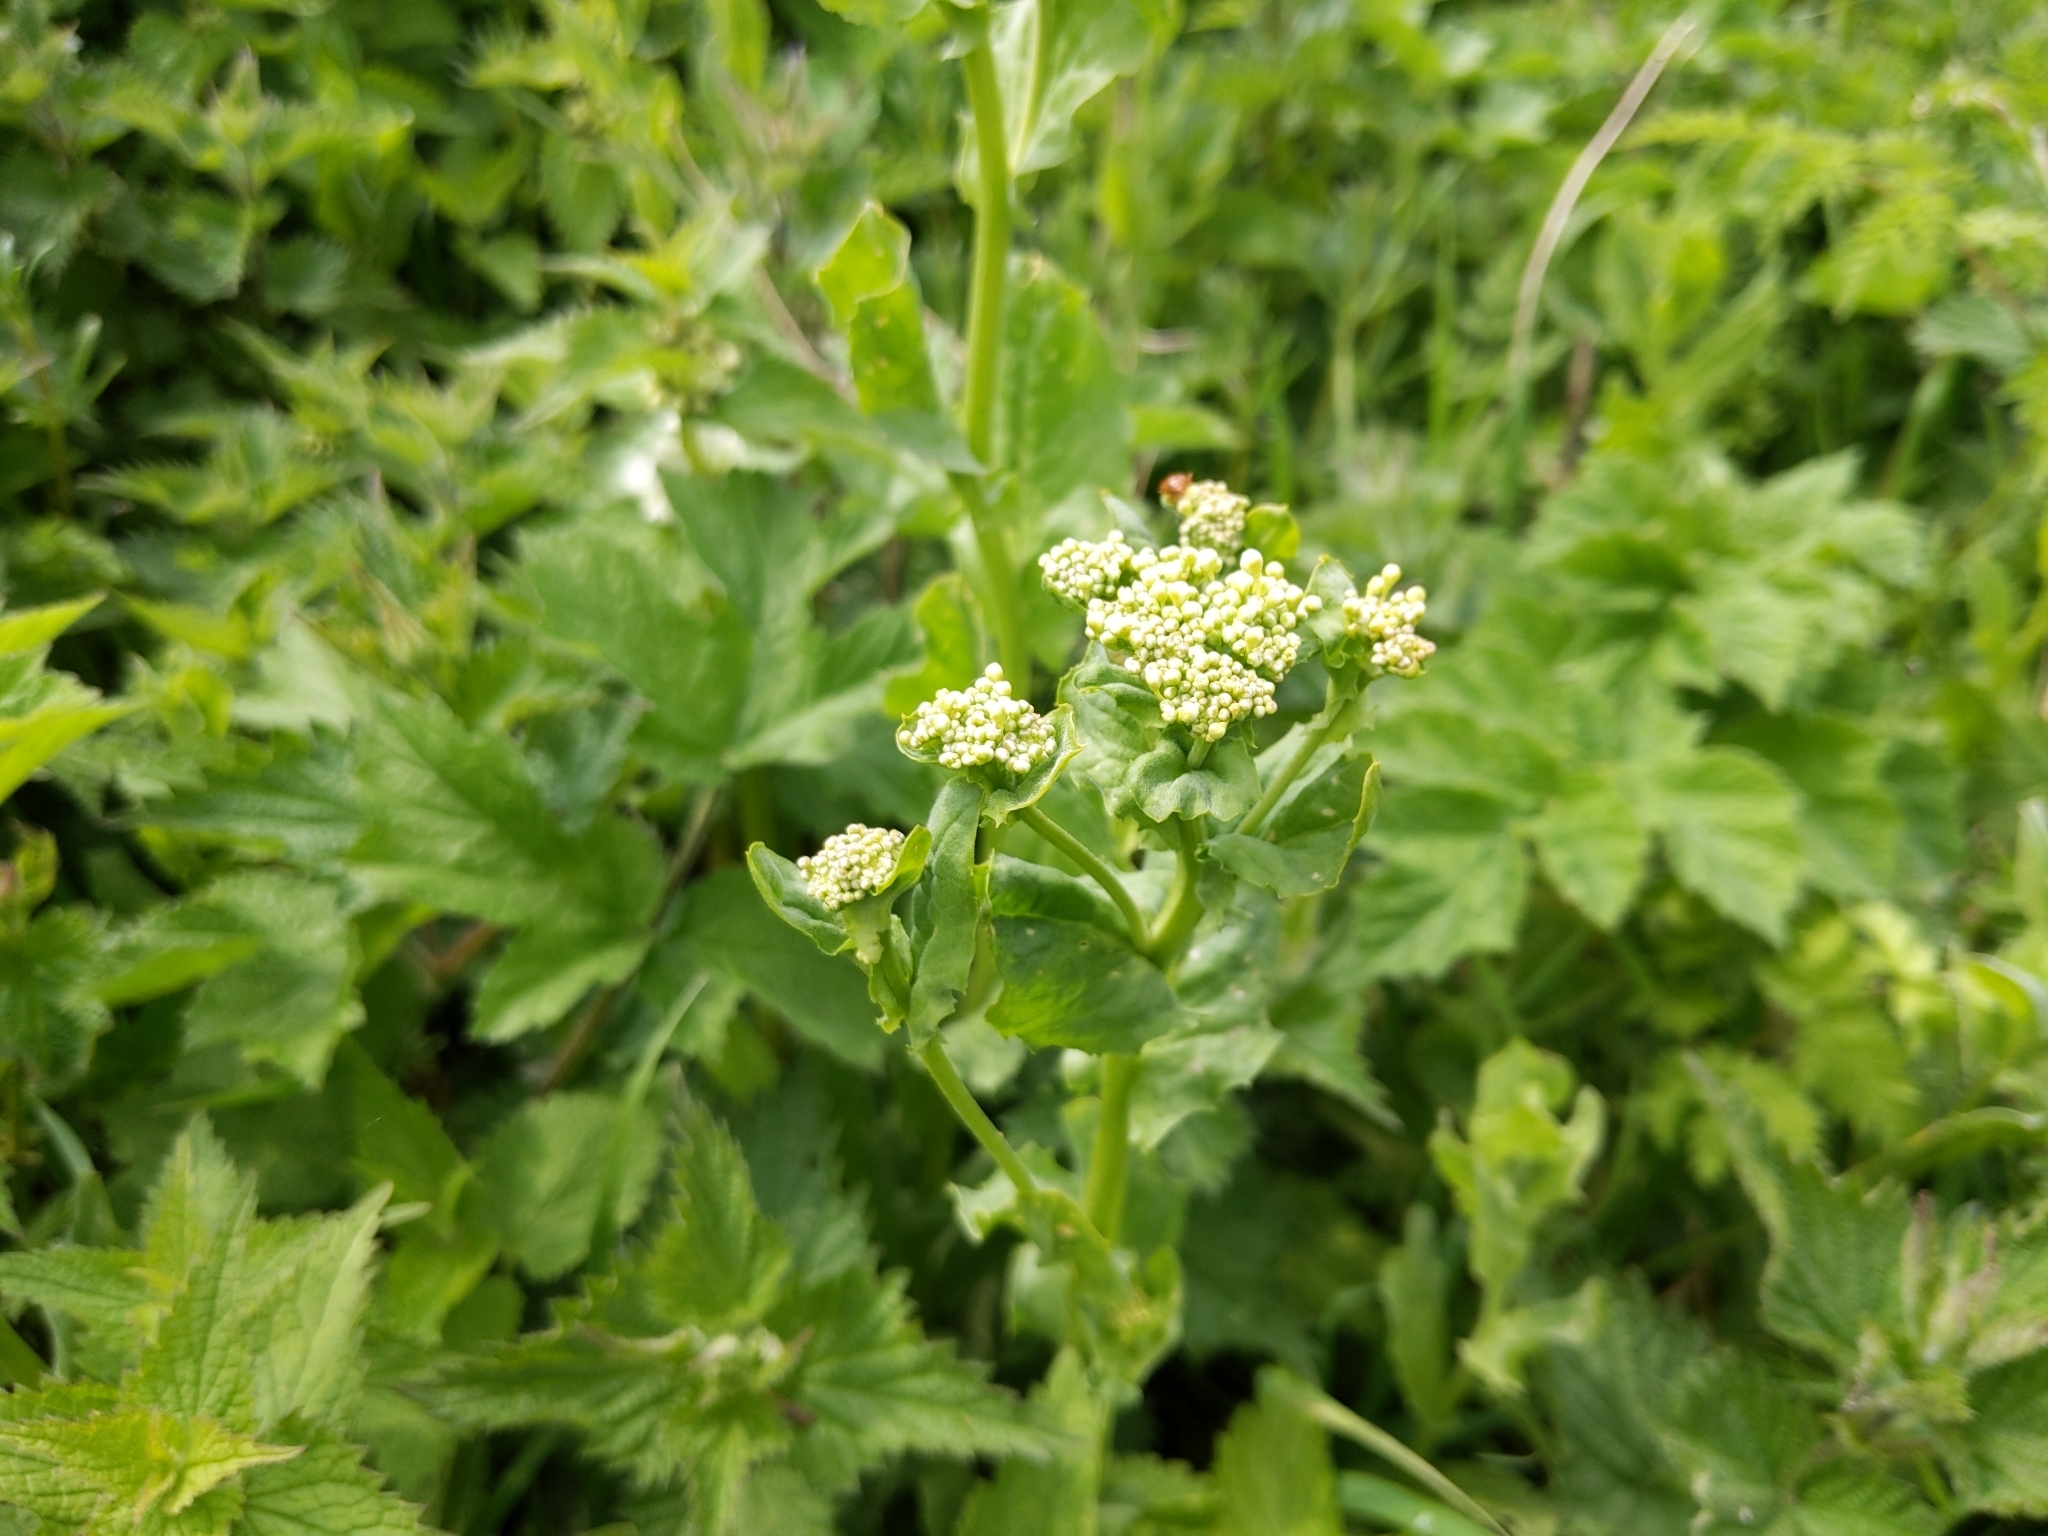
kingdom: Plantae
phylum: Tracheophyta
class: Magnoliopsida
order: Brassicales
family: Brassicaceae
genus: Lepidium
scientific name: Lepidium draba
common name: Hoary cress
